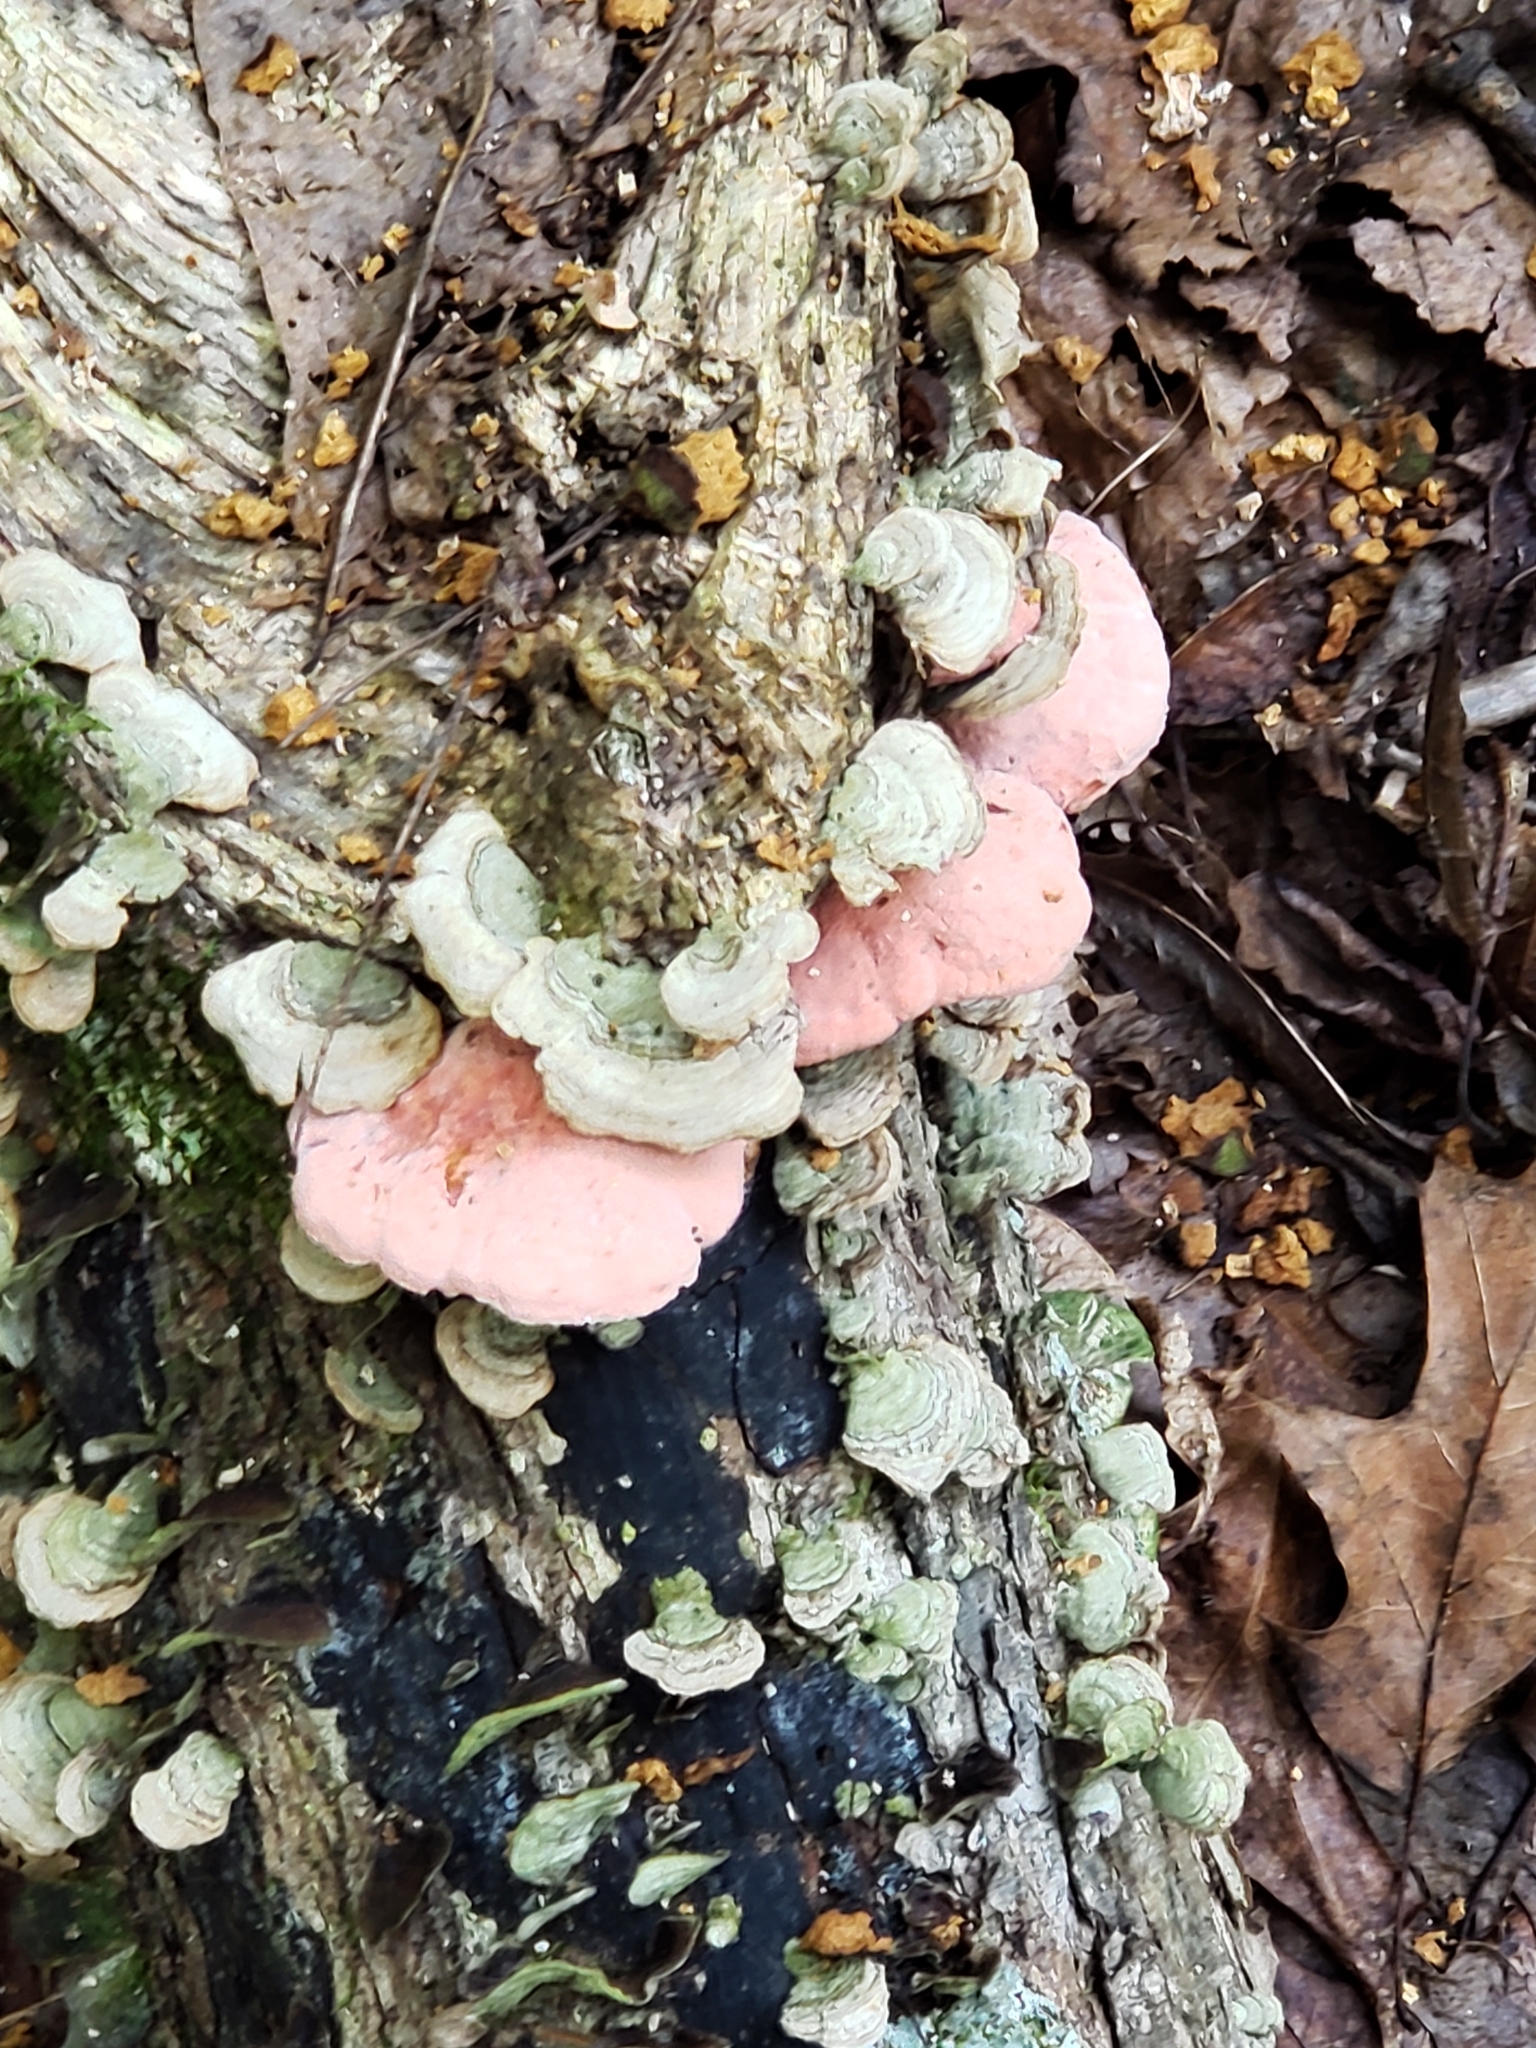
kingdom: Fungi
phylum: Basidiomycota
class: Agaricomycetes
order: Polyporales
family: Irpicaceae
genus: Byssomerulius
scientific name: Byssomerulius incarnatus
